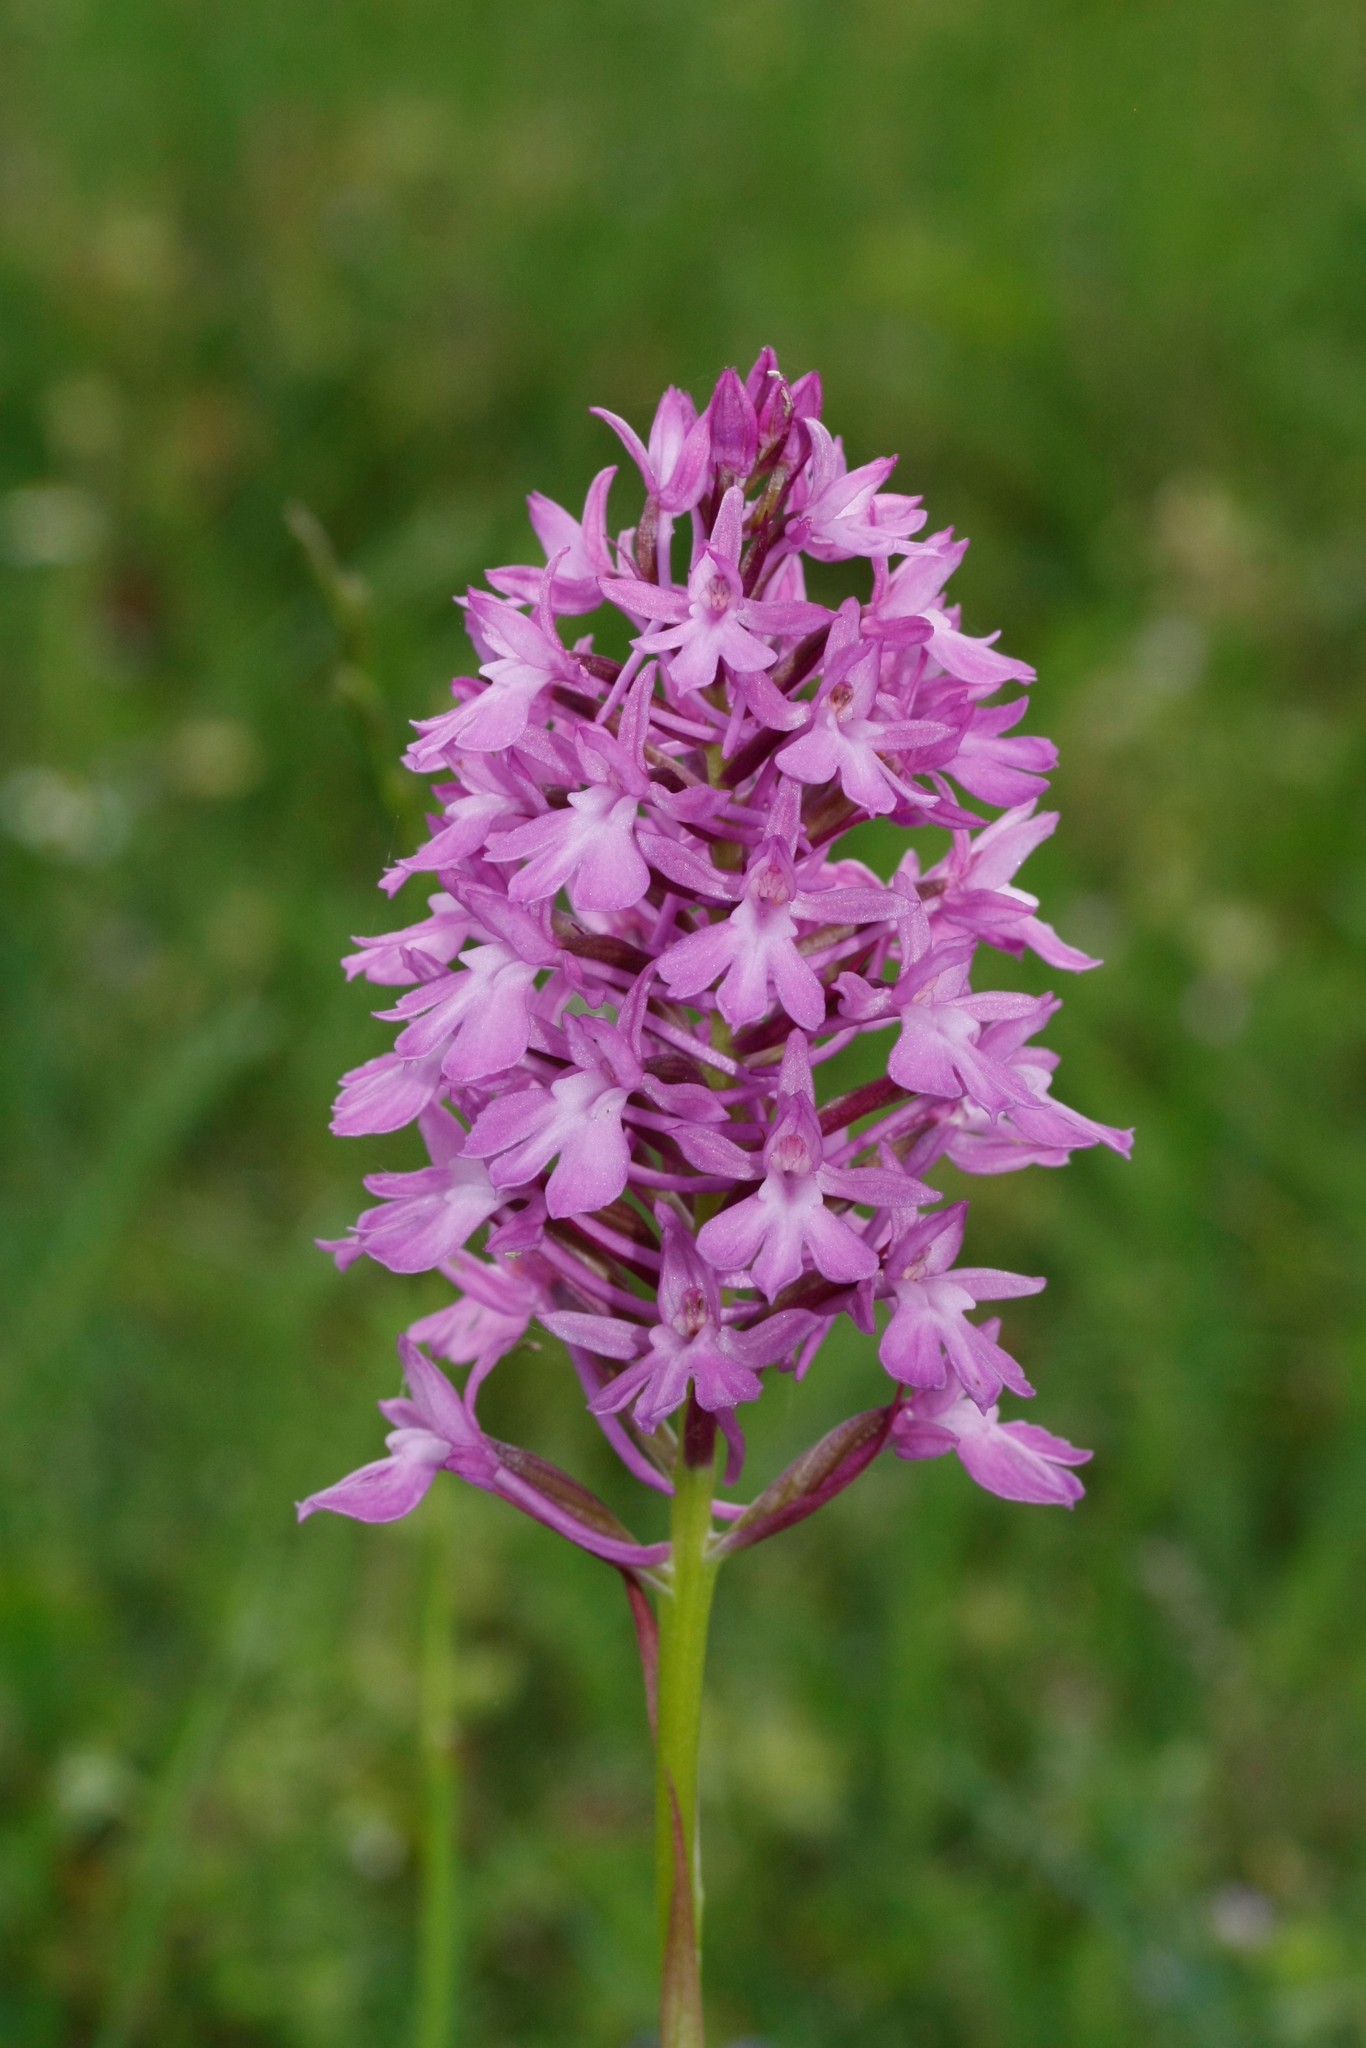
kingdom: Plantae
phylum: Tracheophyta
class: Liliopsida
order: Asparagales
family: Orchidaceae
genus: Anacamptis
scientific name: Anacamptis pyramidalis
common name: Pyramidal orchid
